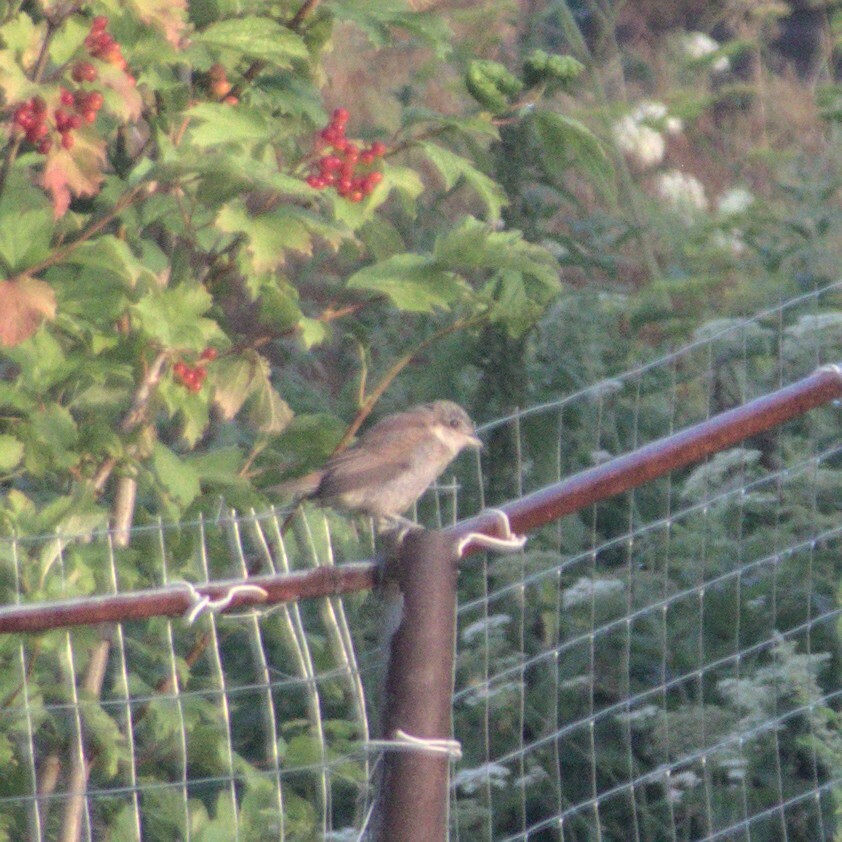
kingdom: Animalia
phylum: Chordata
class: Aves
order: Passeriformes
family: Laniidae
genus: Lanius
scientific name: Lanius collurio
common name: Red-backed shrike
